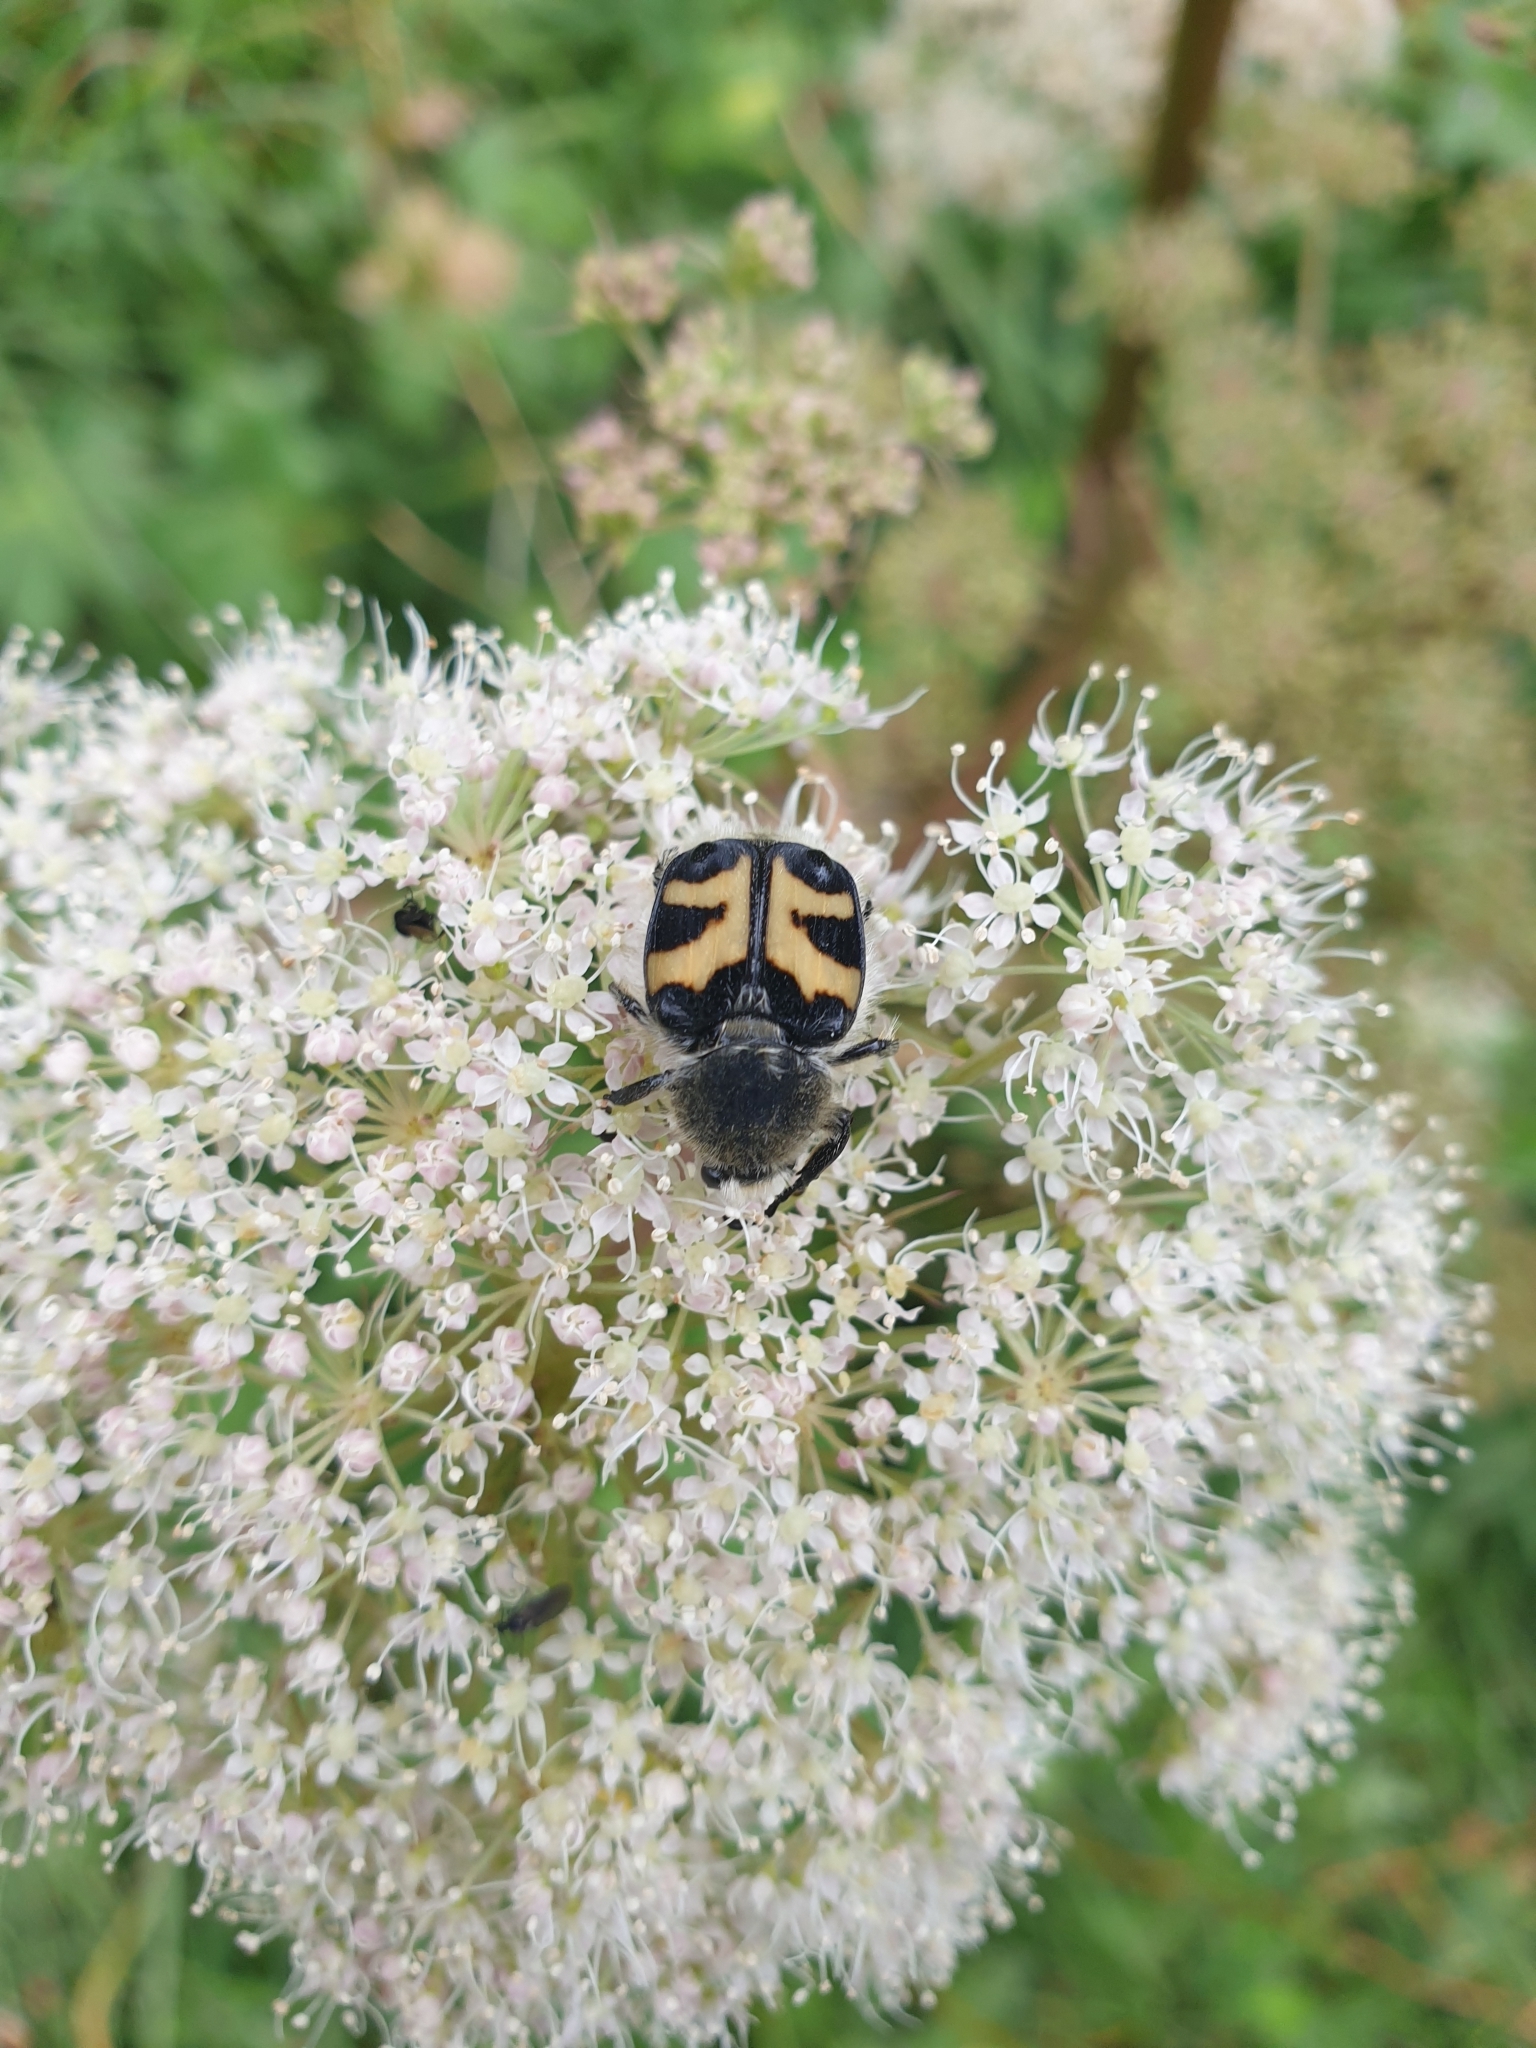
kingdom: Animalia
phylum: Arthropoda
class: Insecta
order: Coleoptera
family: Scarabaeidae
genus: Trichius
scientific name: Trichius fasciatus
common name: Bee beetle
